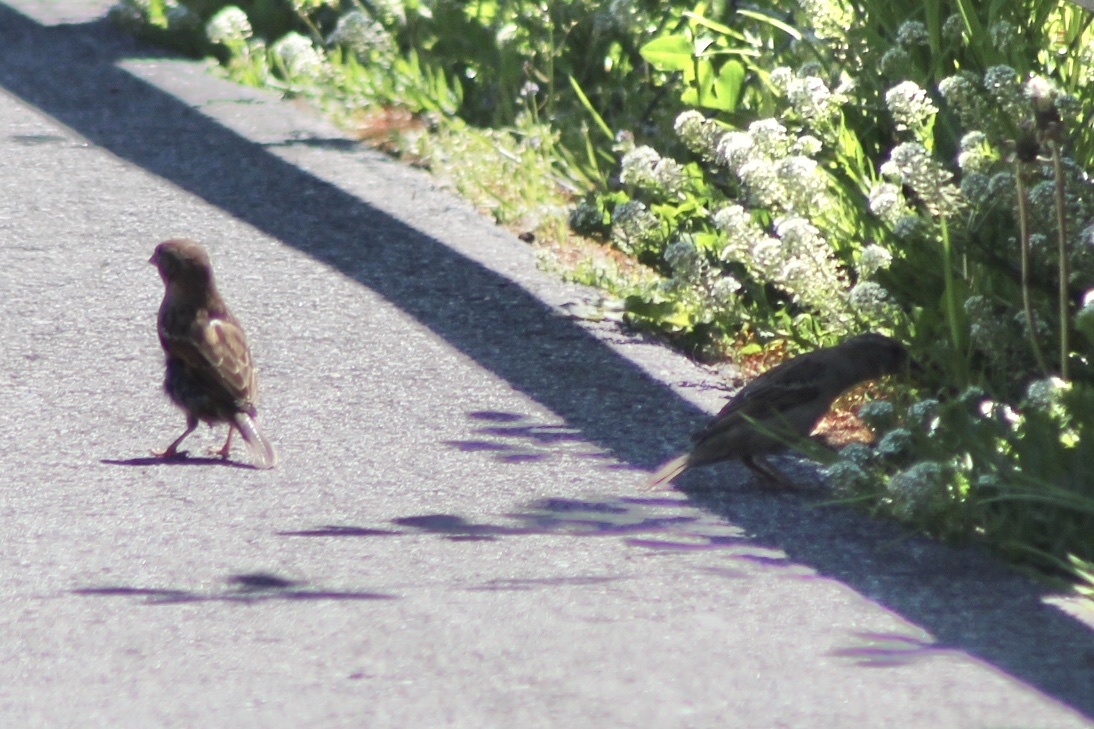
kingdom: Animalia
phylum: Chordata
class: Aves
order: Passeriformes
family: Passeridae
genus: Passer
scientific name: Passer domesticus
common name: House sparrow
